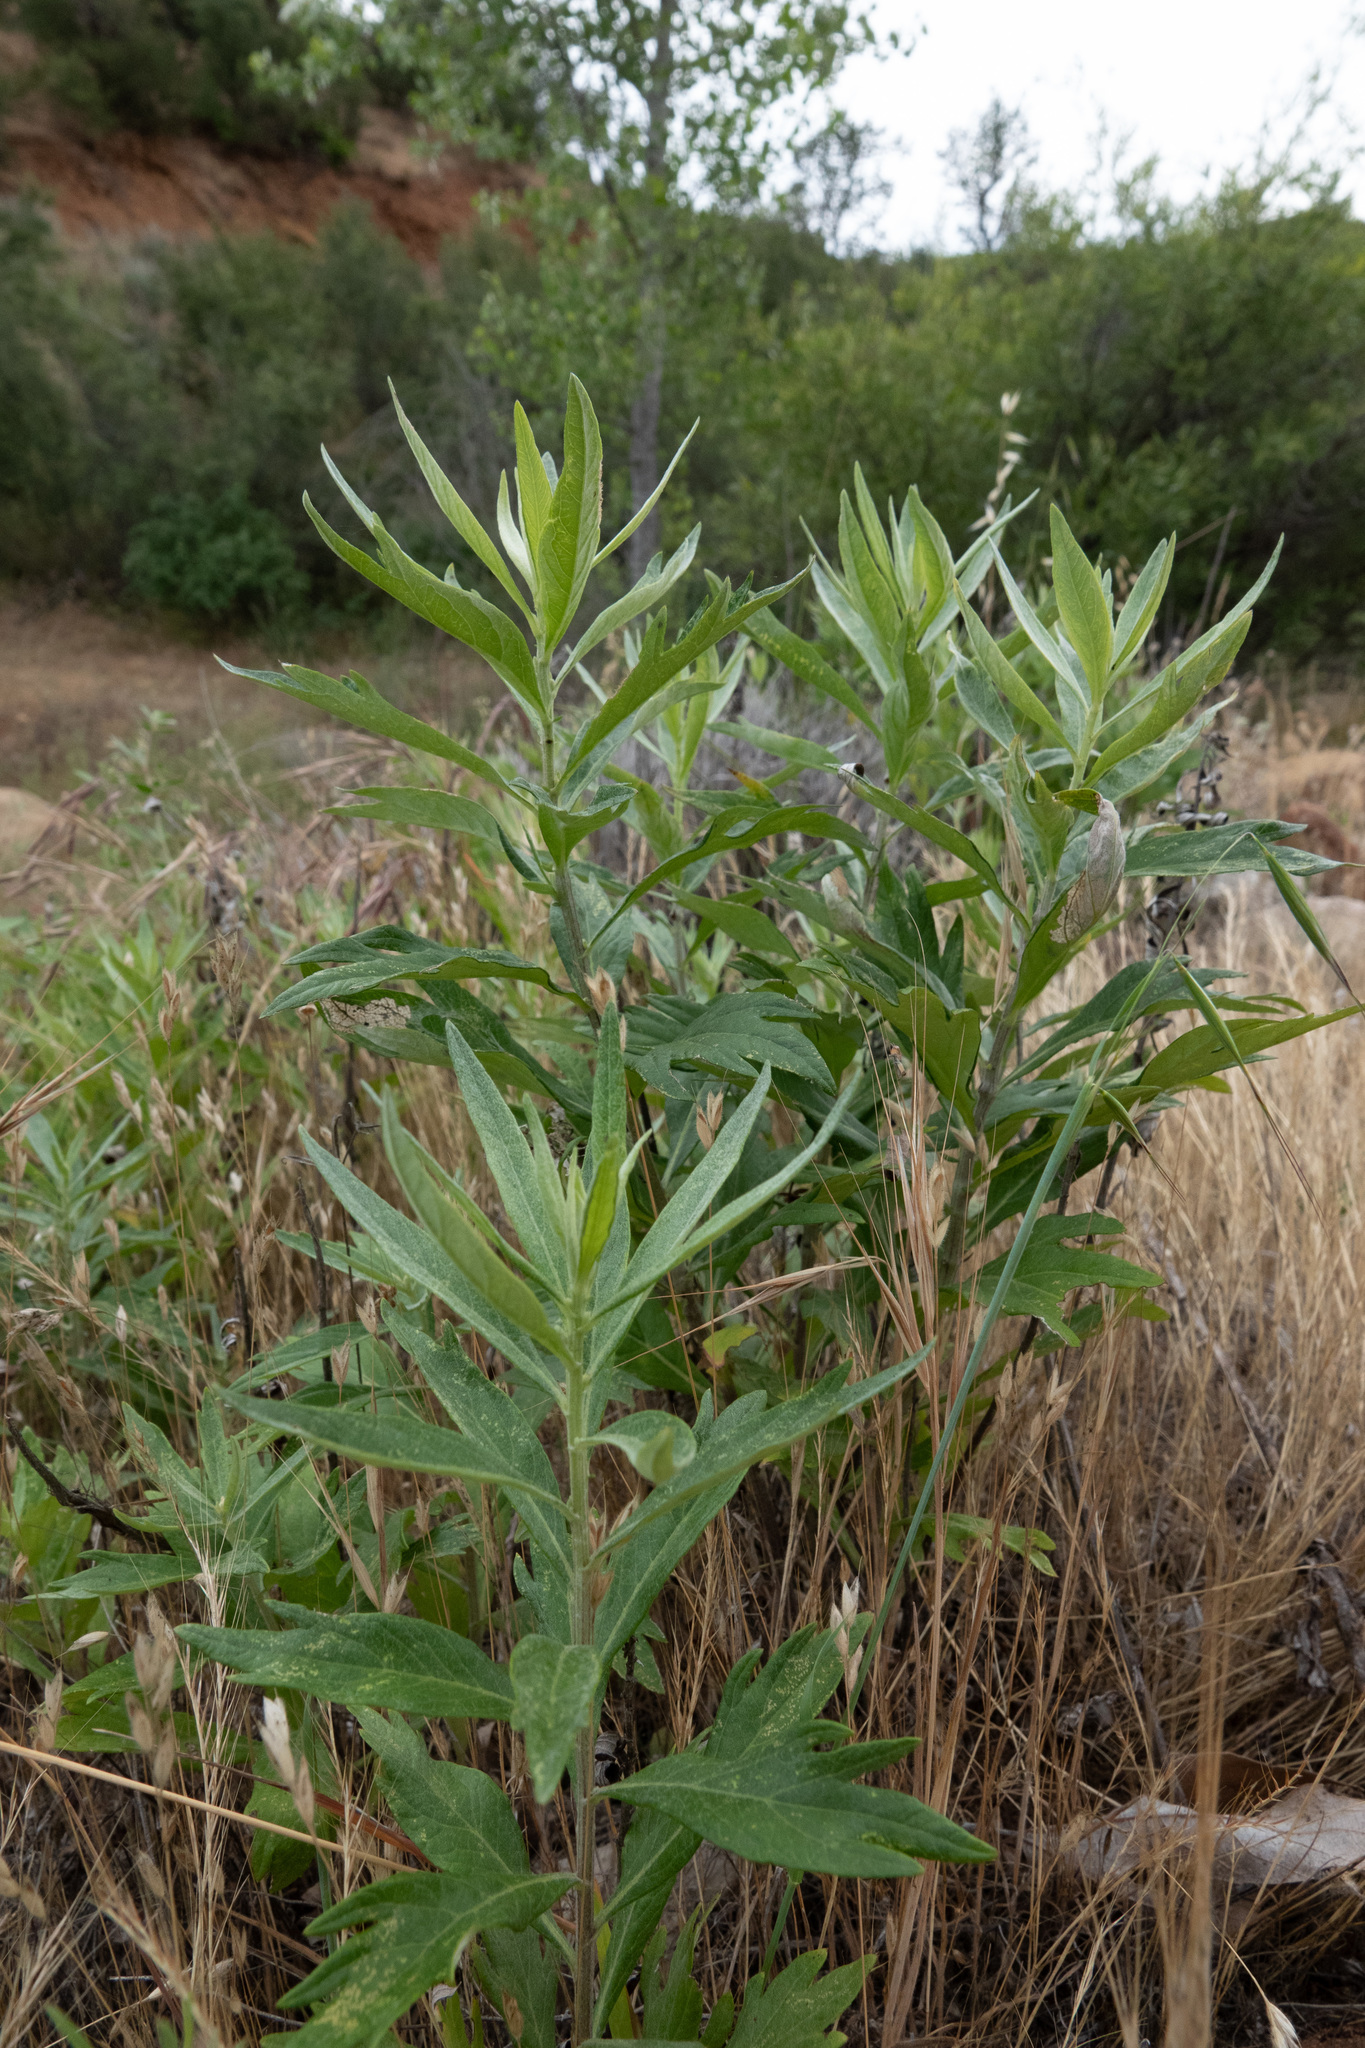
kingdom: Plantae
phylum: Tracheophyta
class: Magnoliopsida
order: Asterales
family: Asteraceae
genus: Artemisia
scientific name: Artemisia douglasiana
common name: Northwest mugwort
